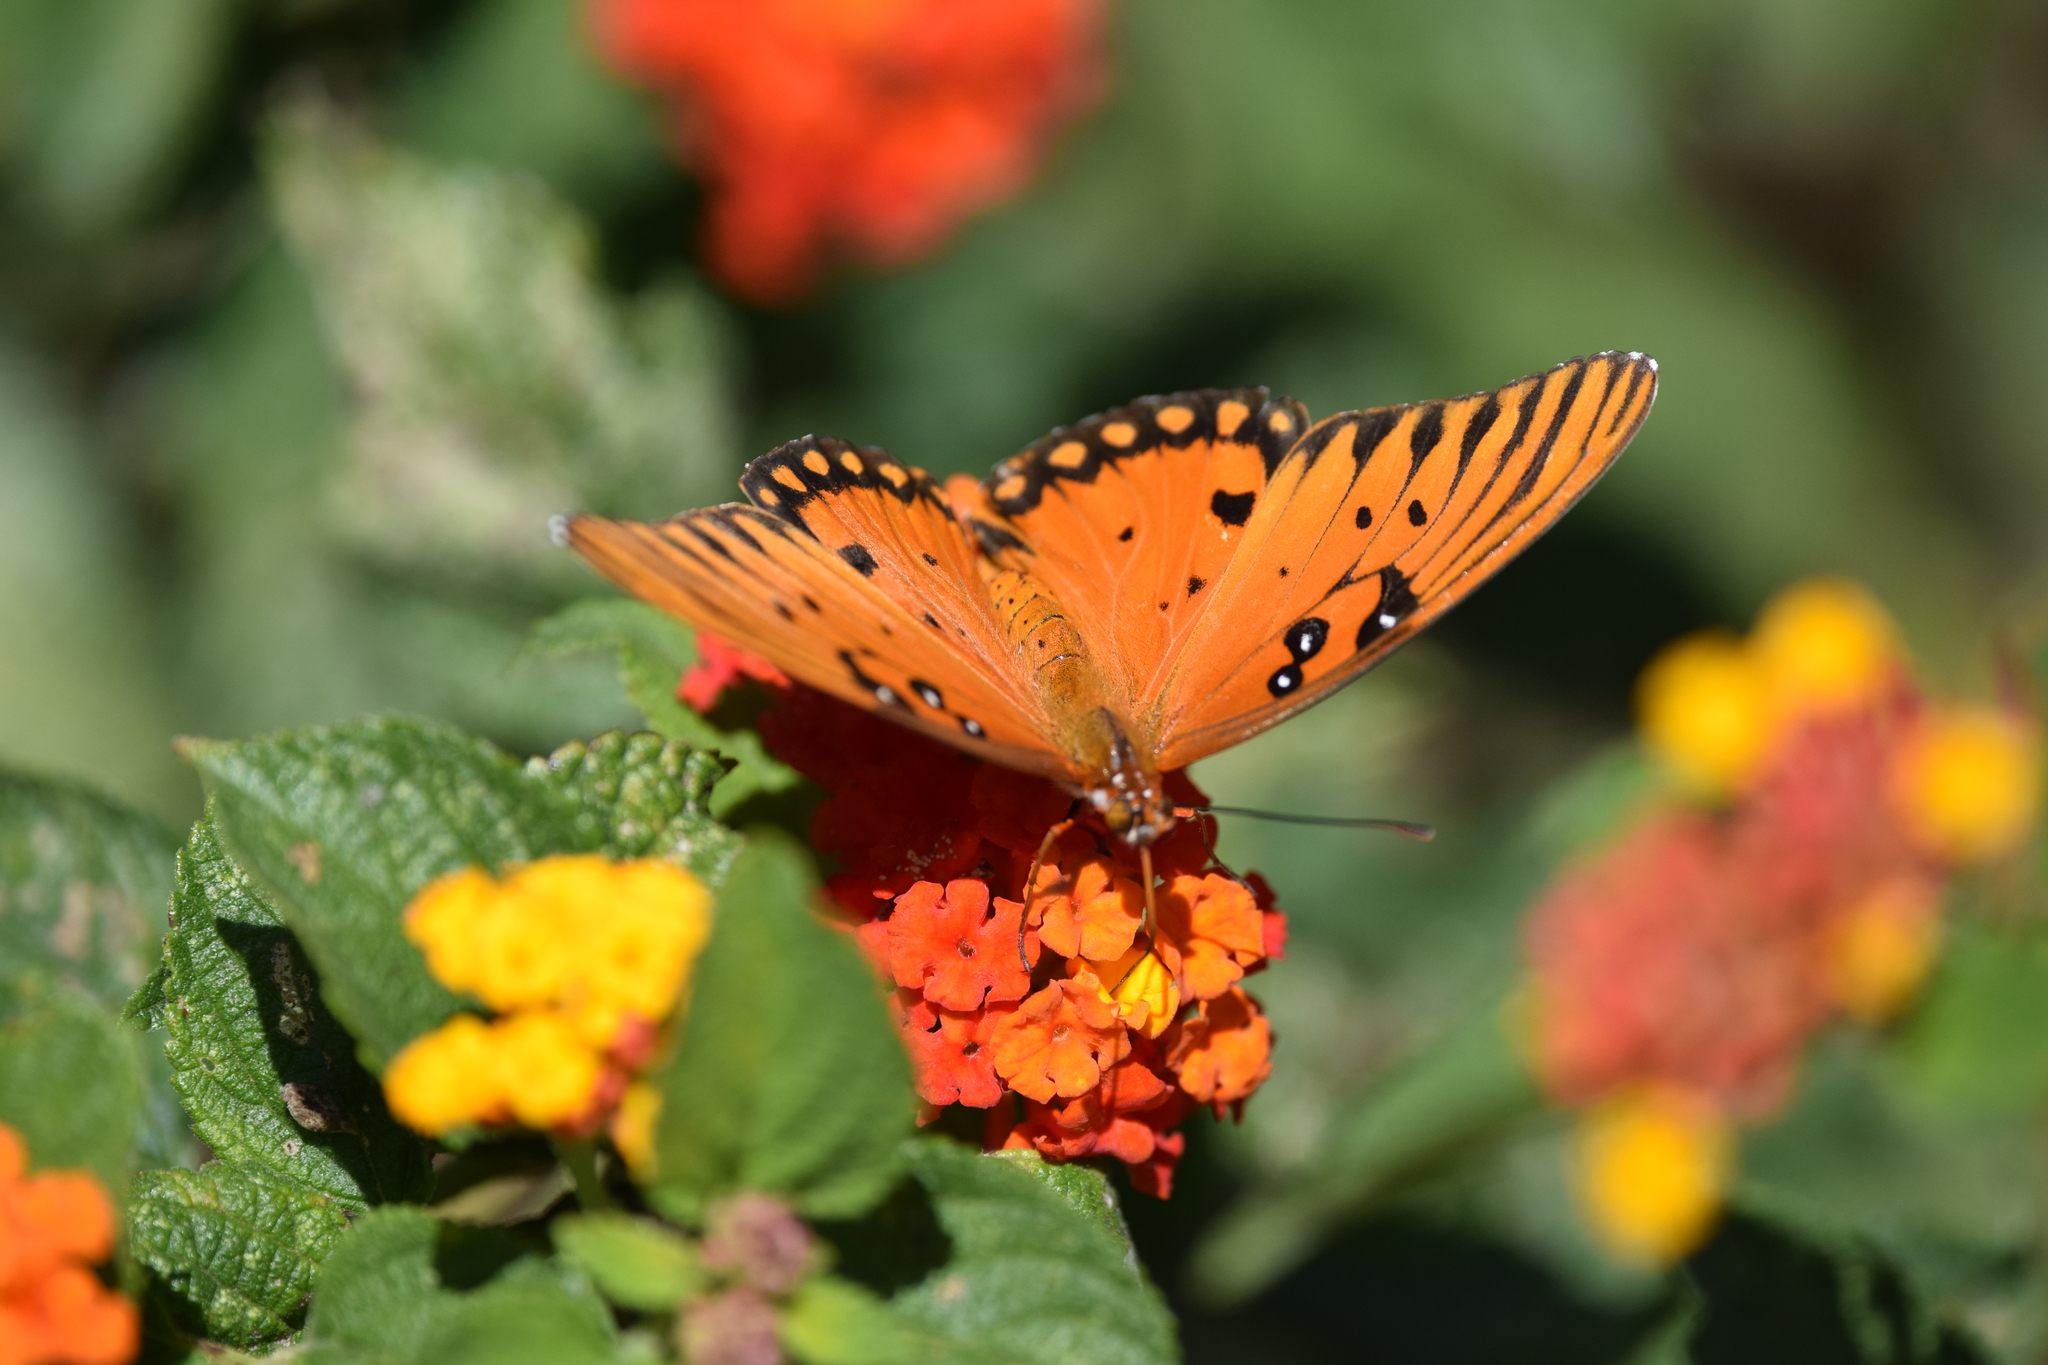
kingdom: Animalia
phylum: Arthropoda
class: Insecta
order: Lepidoptera
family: Nymphalidae
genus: Dione
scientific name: Dione vanillae
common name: Gulf fritillary
